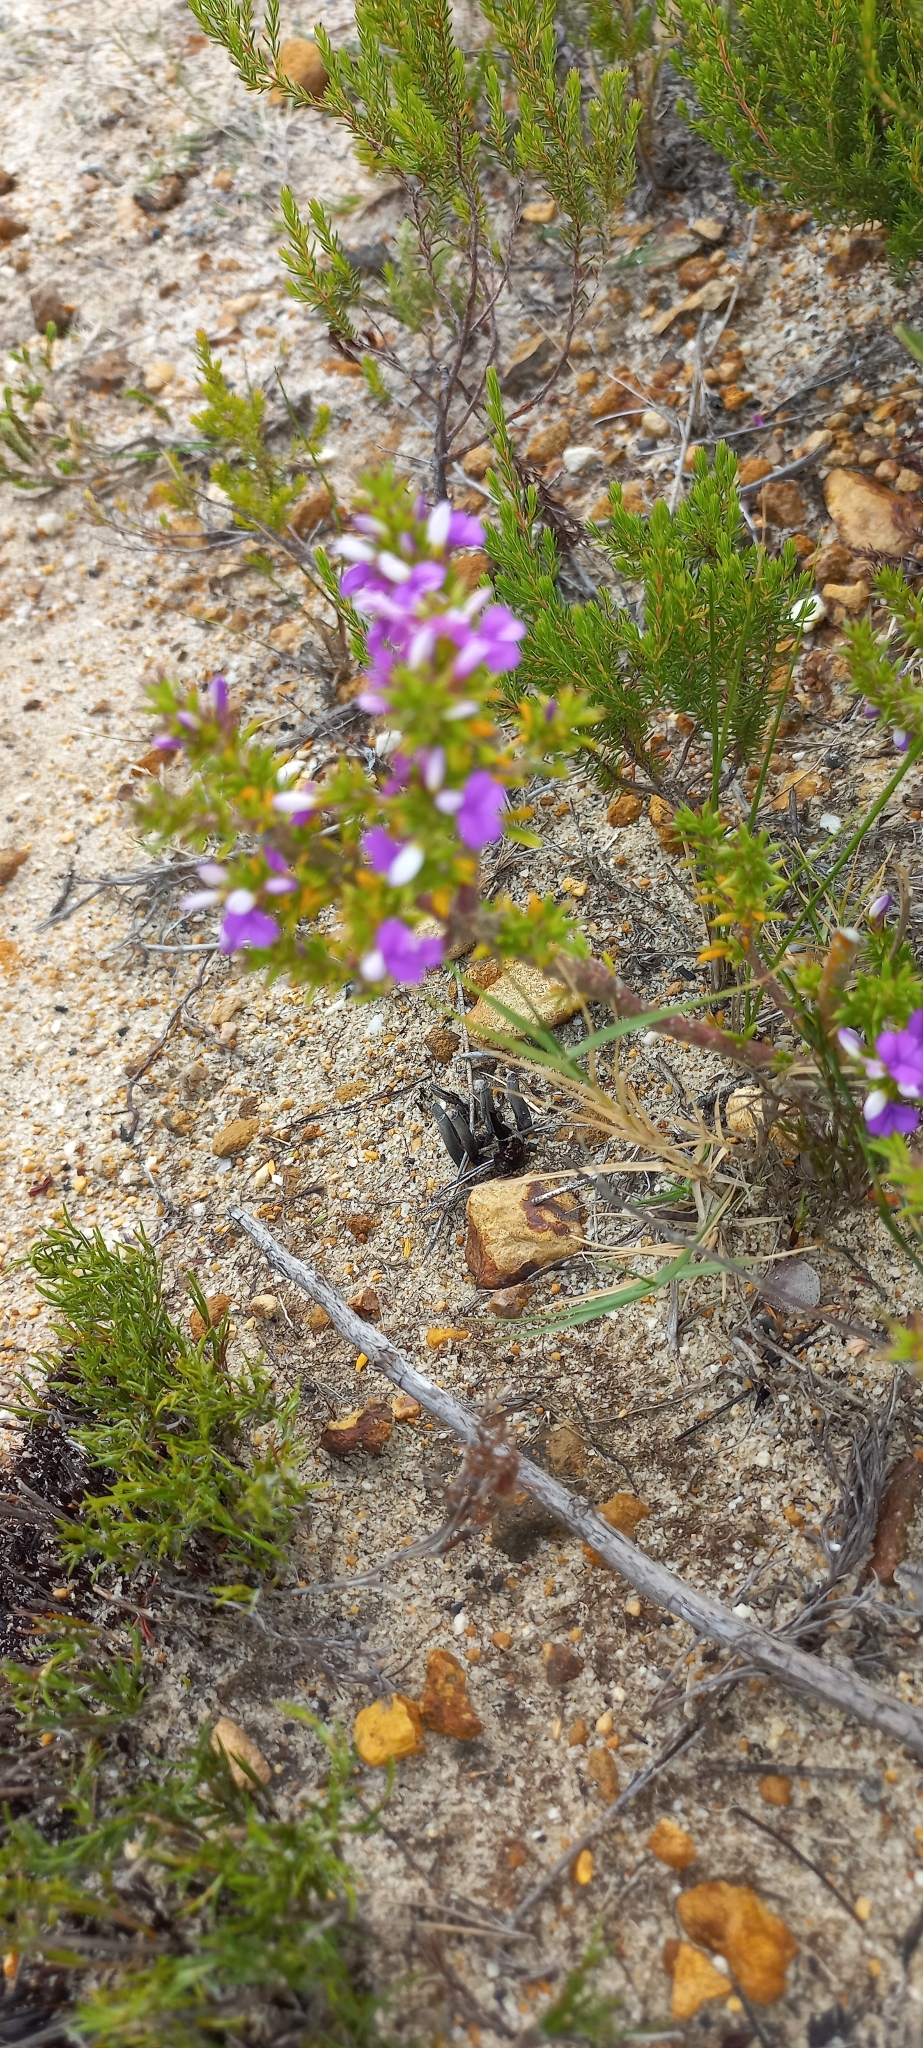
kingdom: Plantae
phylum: Tracheophyta
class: Magnoliopsida
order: Fabales
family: Polygalaceae
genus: Muraltia
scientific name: Muraltia heisteria
